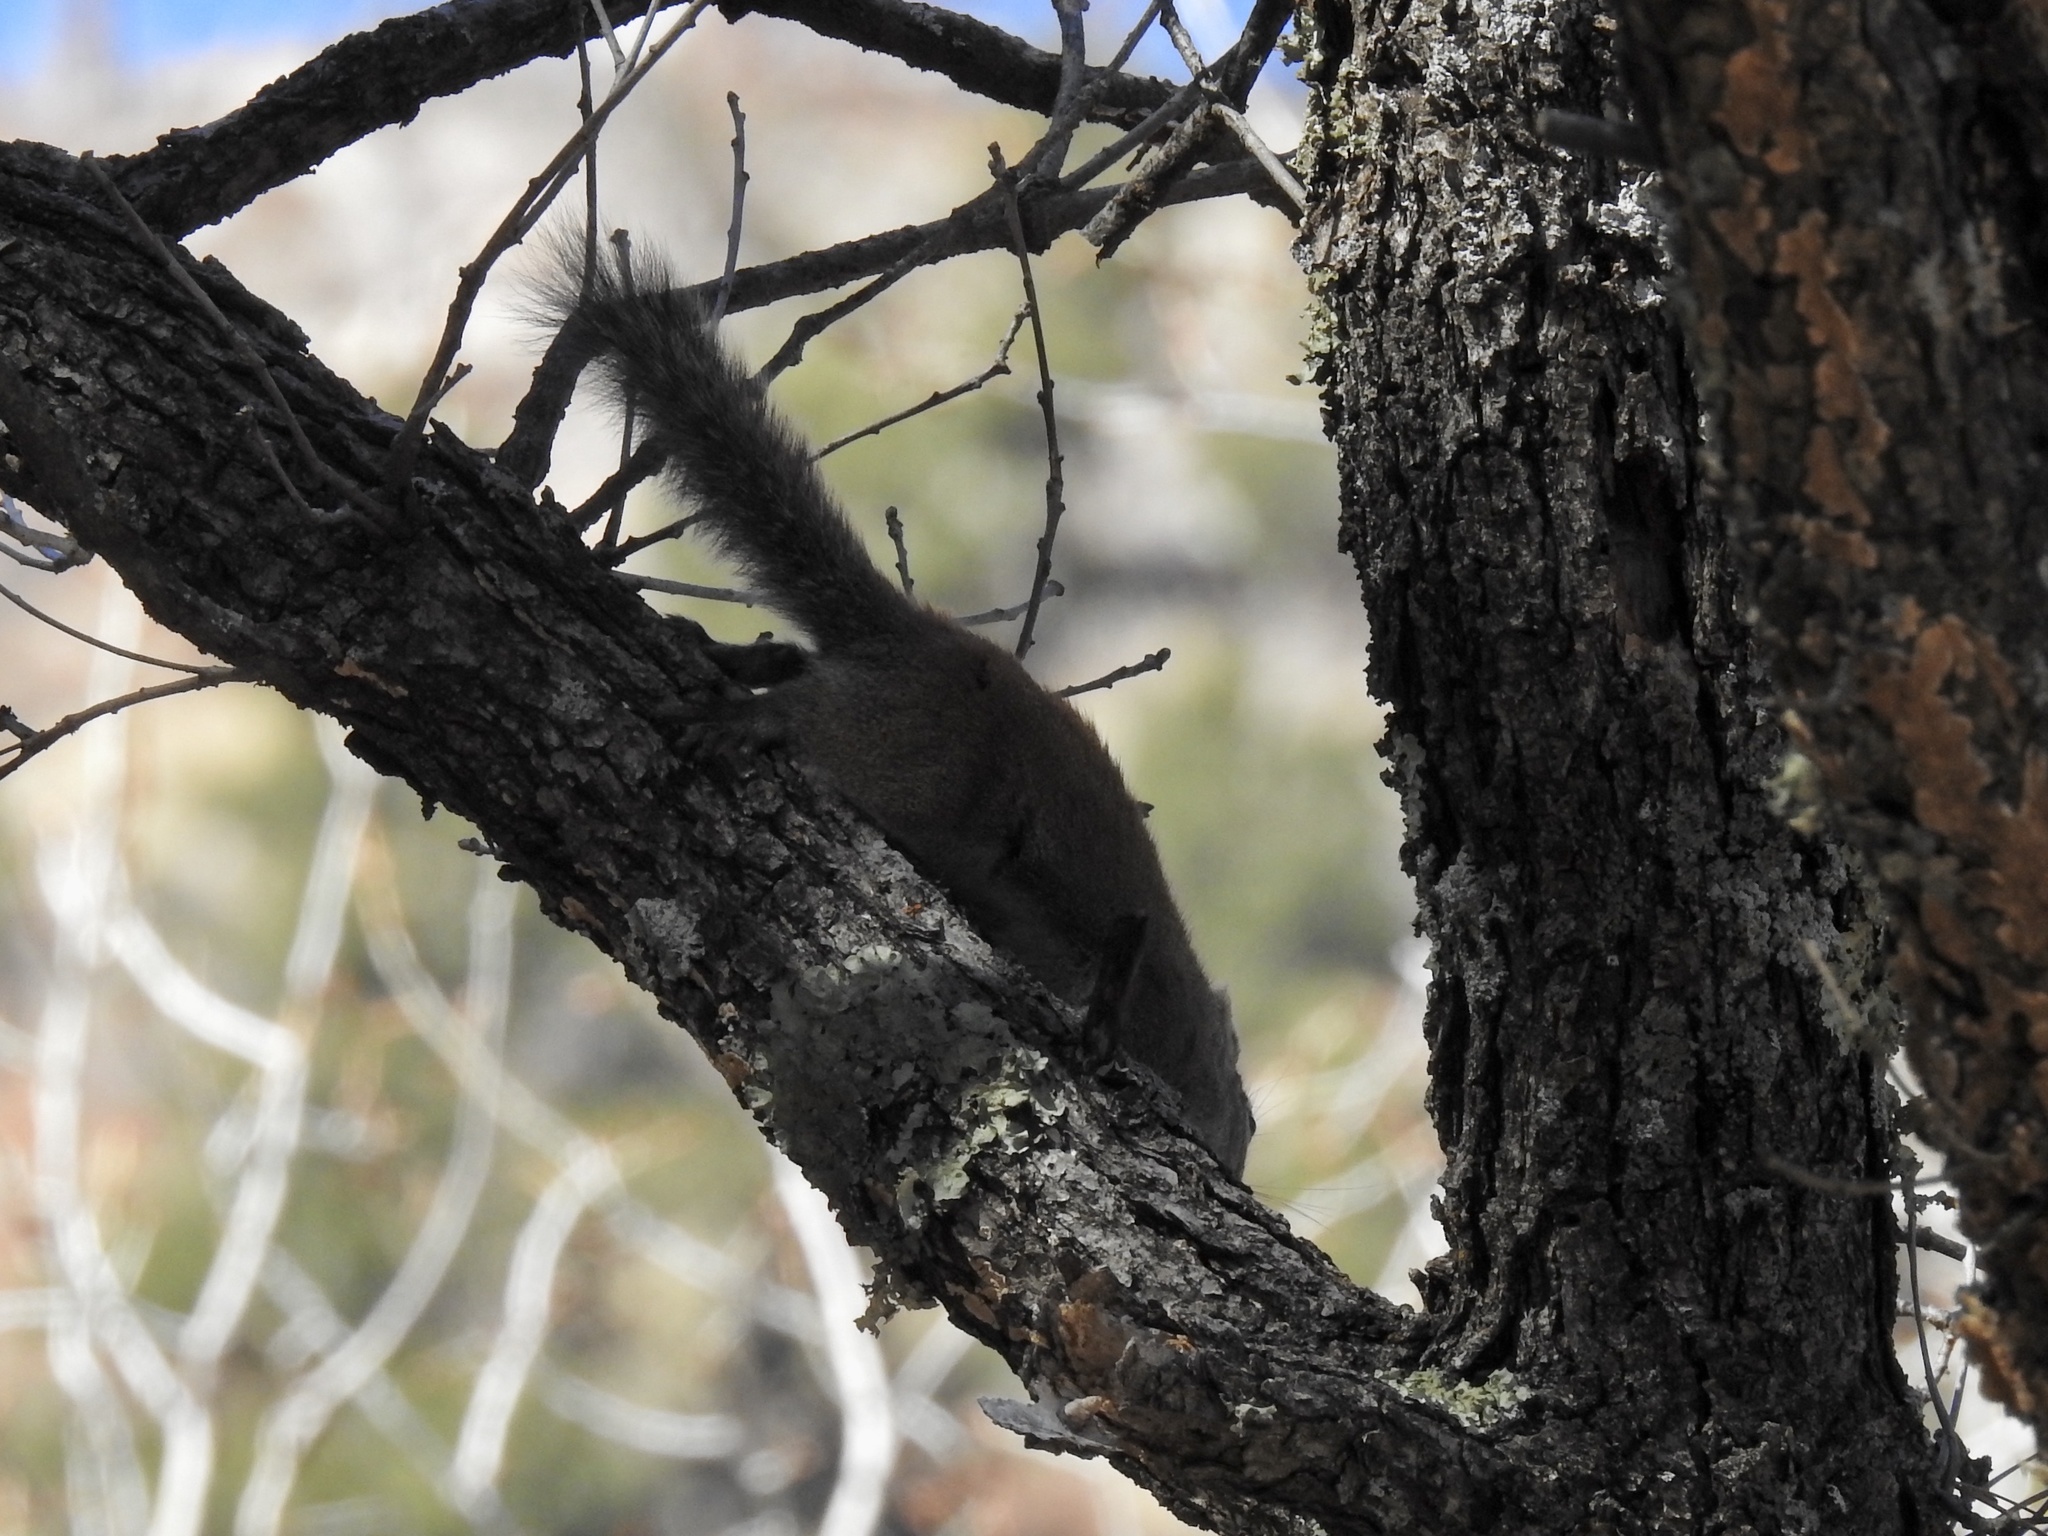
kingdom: Animalia
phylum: Chordata
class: Mammalia
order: Rodentia
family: Sciuridae
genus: Tamiasciurus
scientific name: Tamiasciurus hudsonicus
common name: Red squirrel
